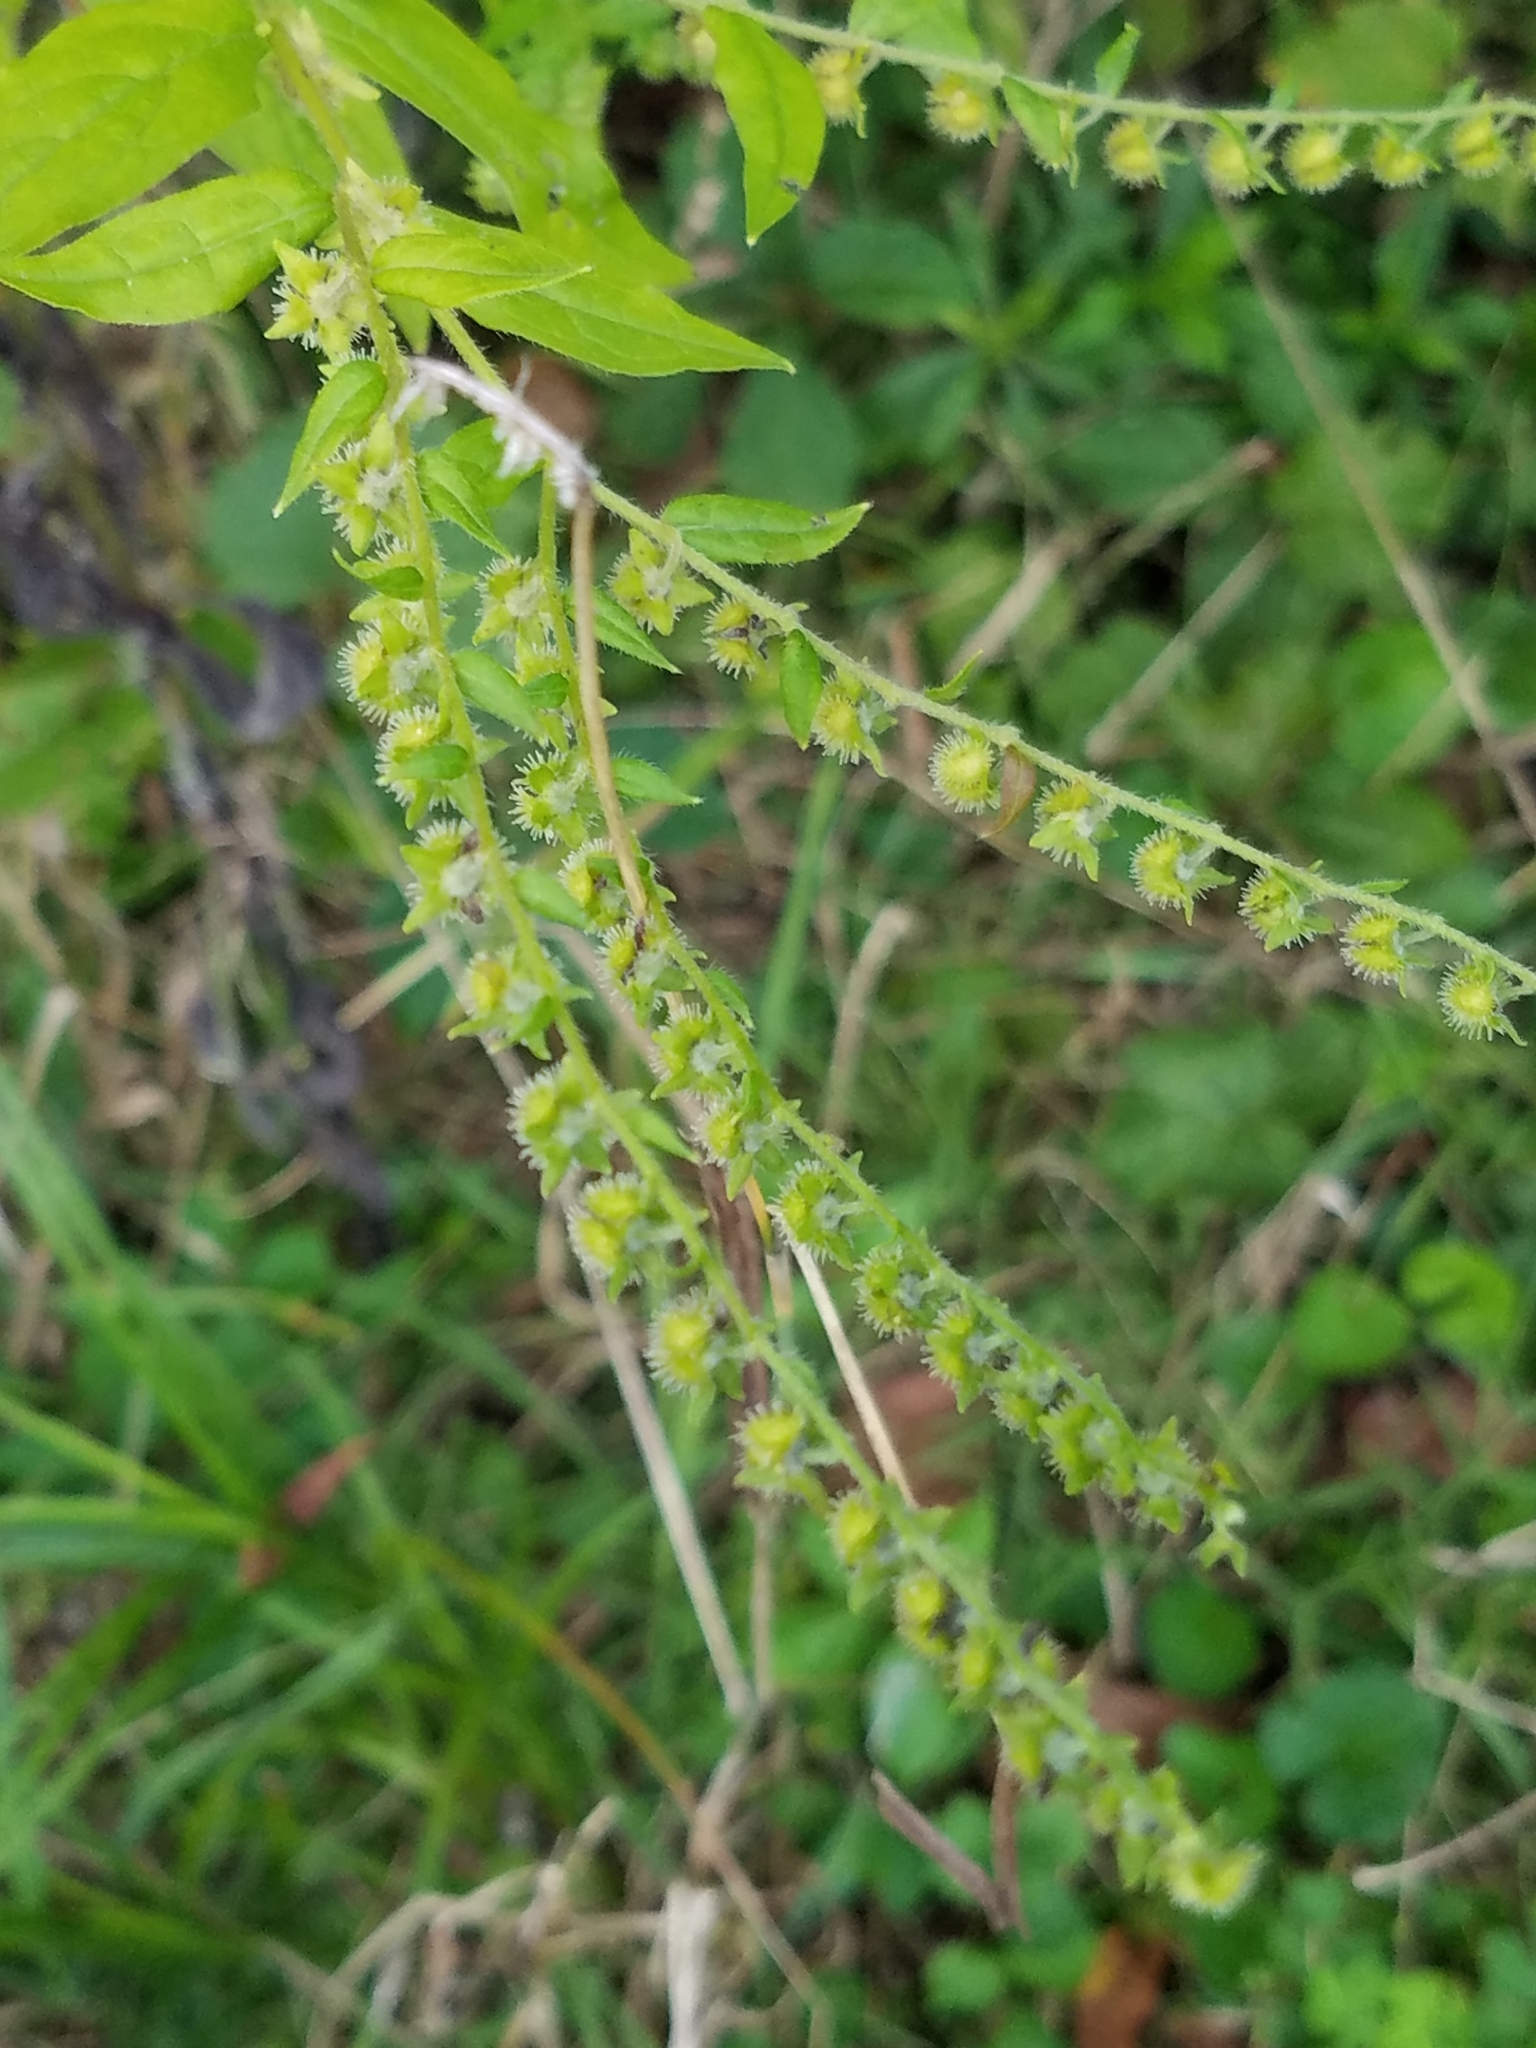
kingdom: Plantae
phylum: Tracheophyta
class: Magnoliopsida
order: Boraginales
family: Boraginaceae
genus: Hackelia
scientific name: Hackelia virginiana
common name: Beggar's-lice
